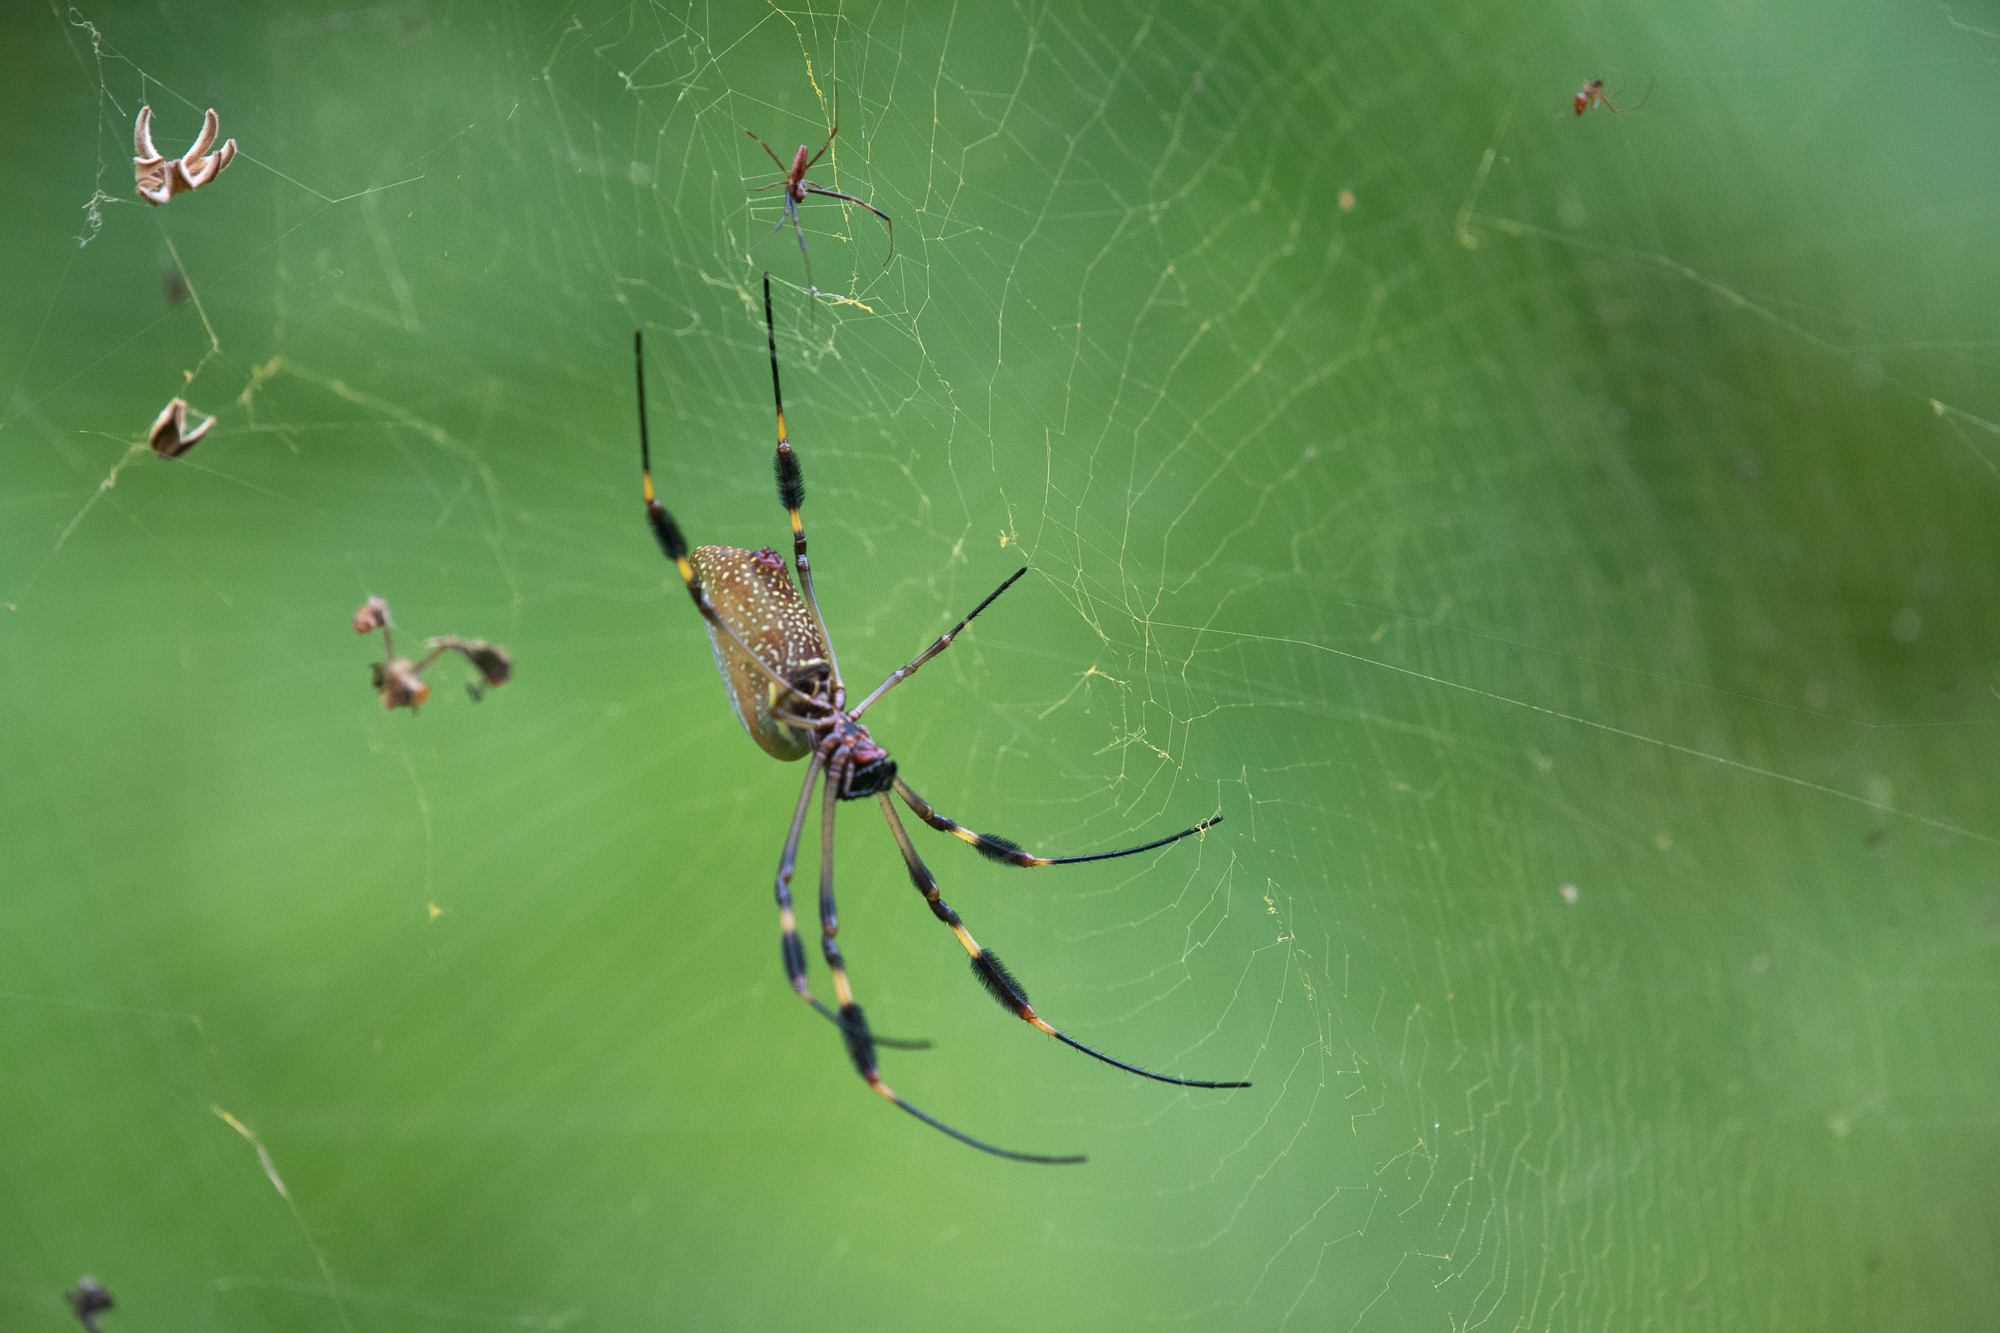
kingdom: Animalia
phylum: Arthropoda
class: Arachnida
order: Araneae
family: Araneidae
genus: Trichonephila
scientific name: Trichonephila clavipes
